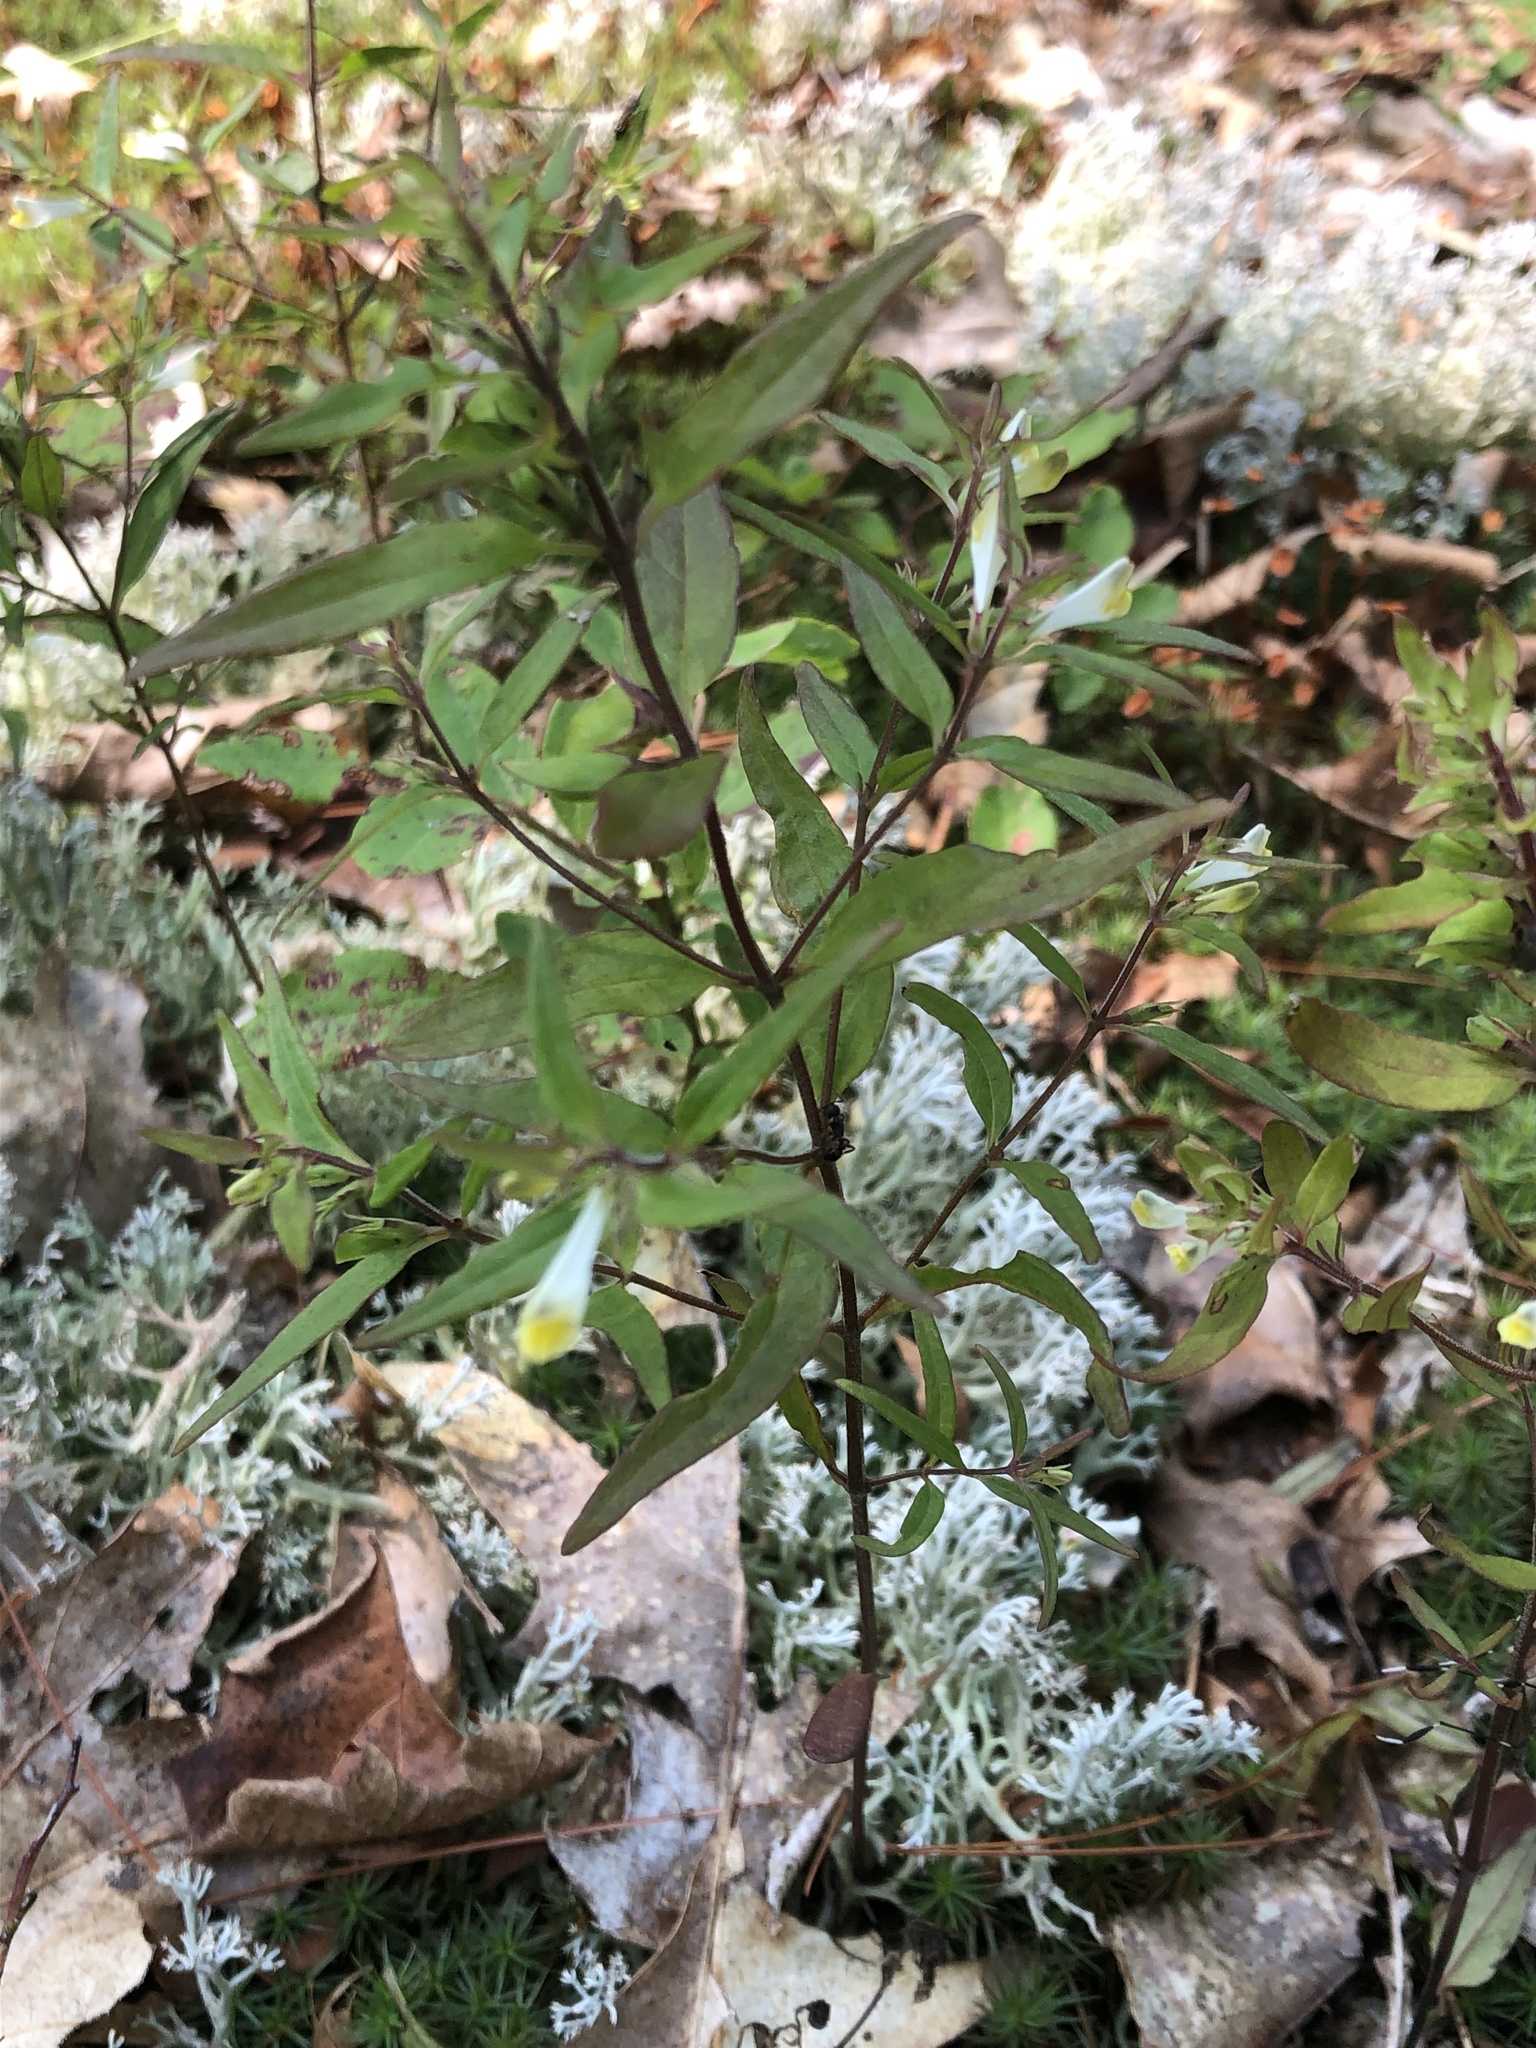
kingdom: Plantae
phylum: Tracheophyta
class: Magnoliopsida
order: Lamiales
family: Orobanchaceae
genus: Melampyrum
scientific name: Melampyrum lineare
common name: American cow-wheat
